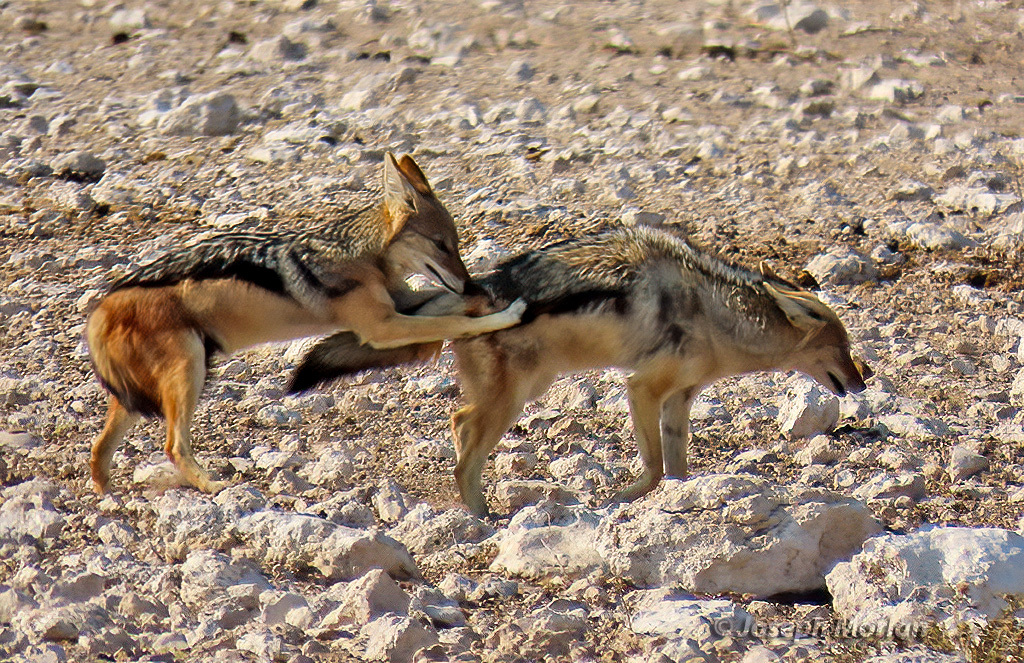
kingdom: Animalia
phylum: Chordata
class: Mammalia
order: Carnivora
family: Canidae
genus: Lupulella
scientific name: Lupulella
